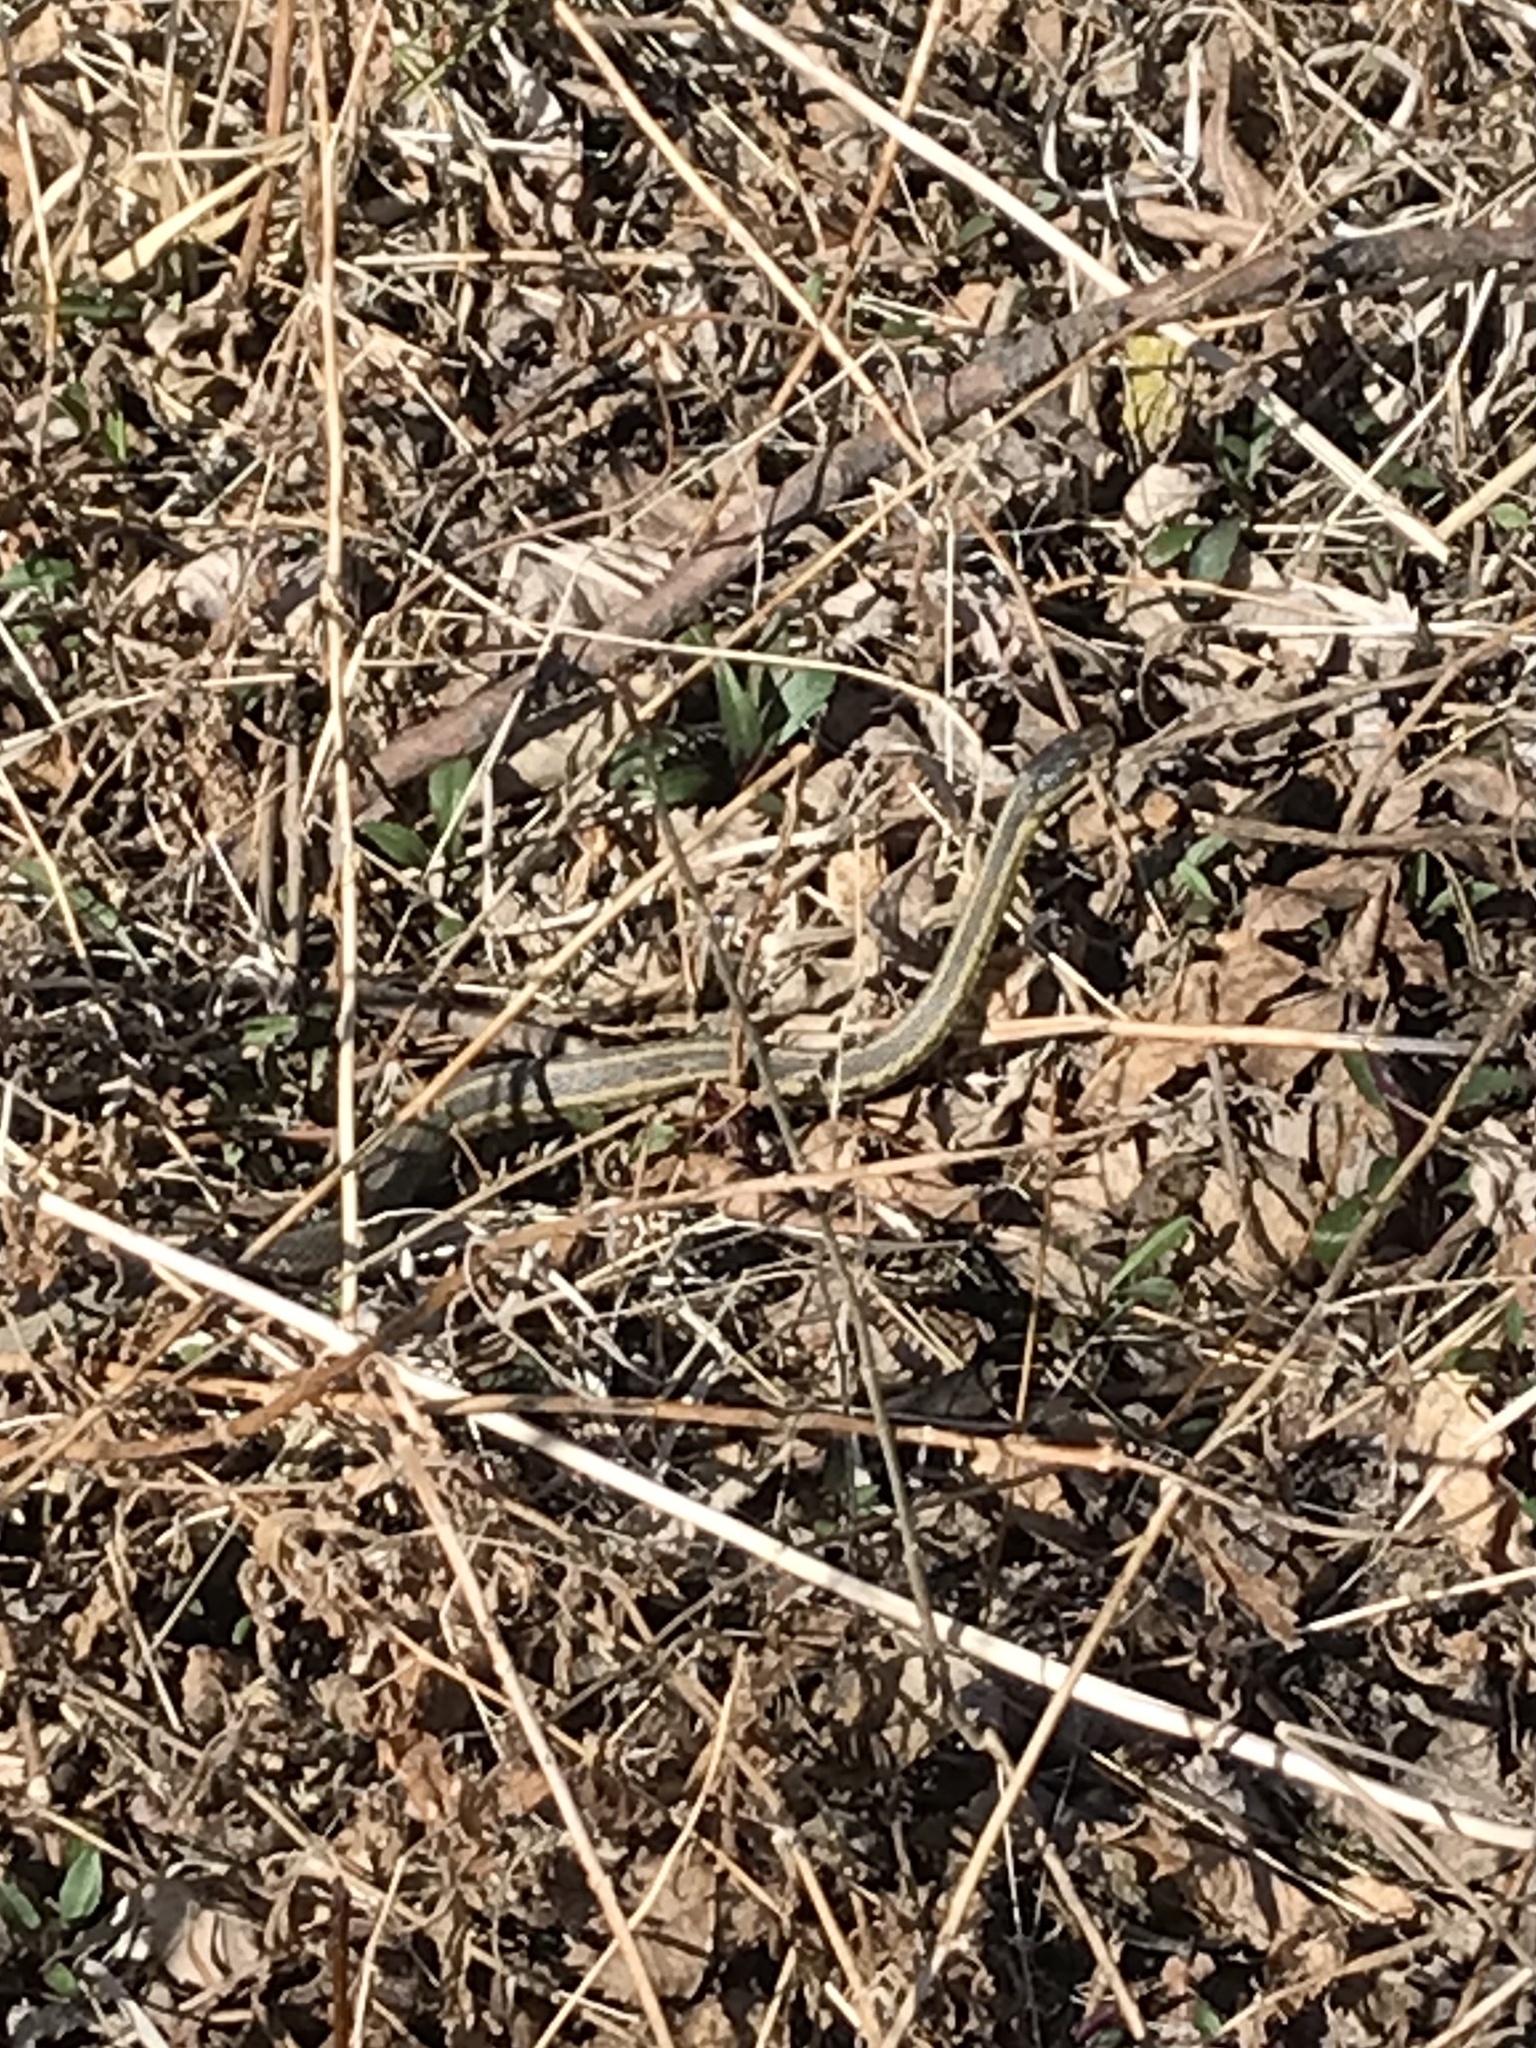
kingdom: Animalia
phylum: Chordata
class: Squamata
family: Colubridae
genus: Thamnophis
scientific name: Thamnophis sirtalis
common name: Common garter snake
